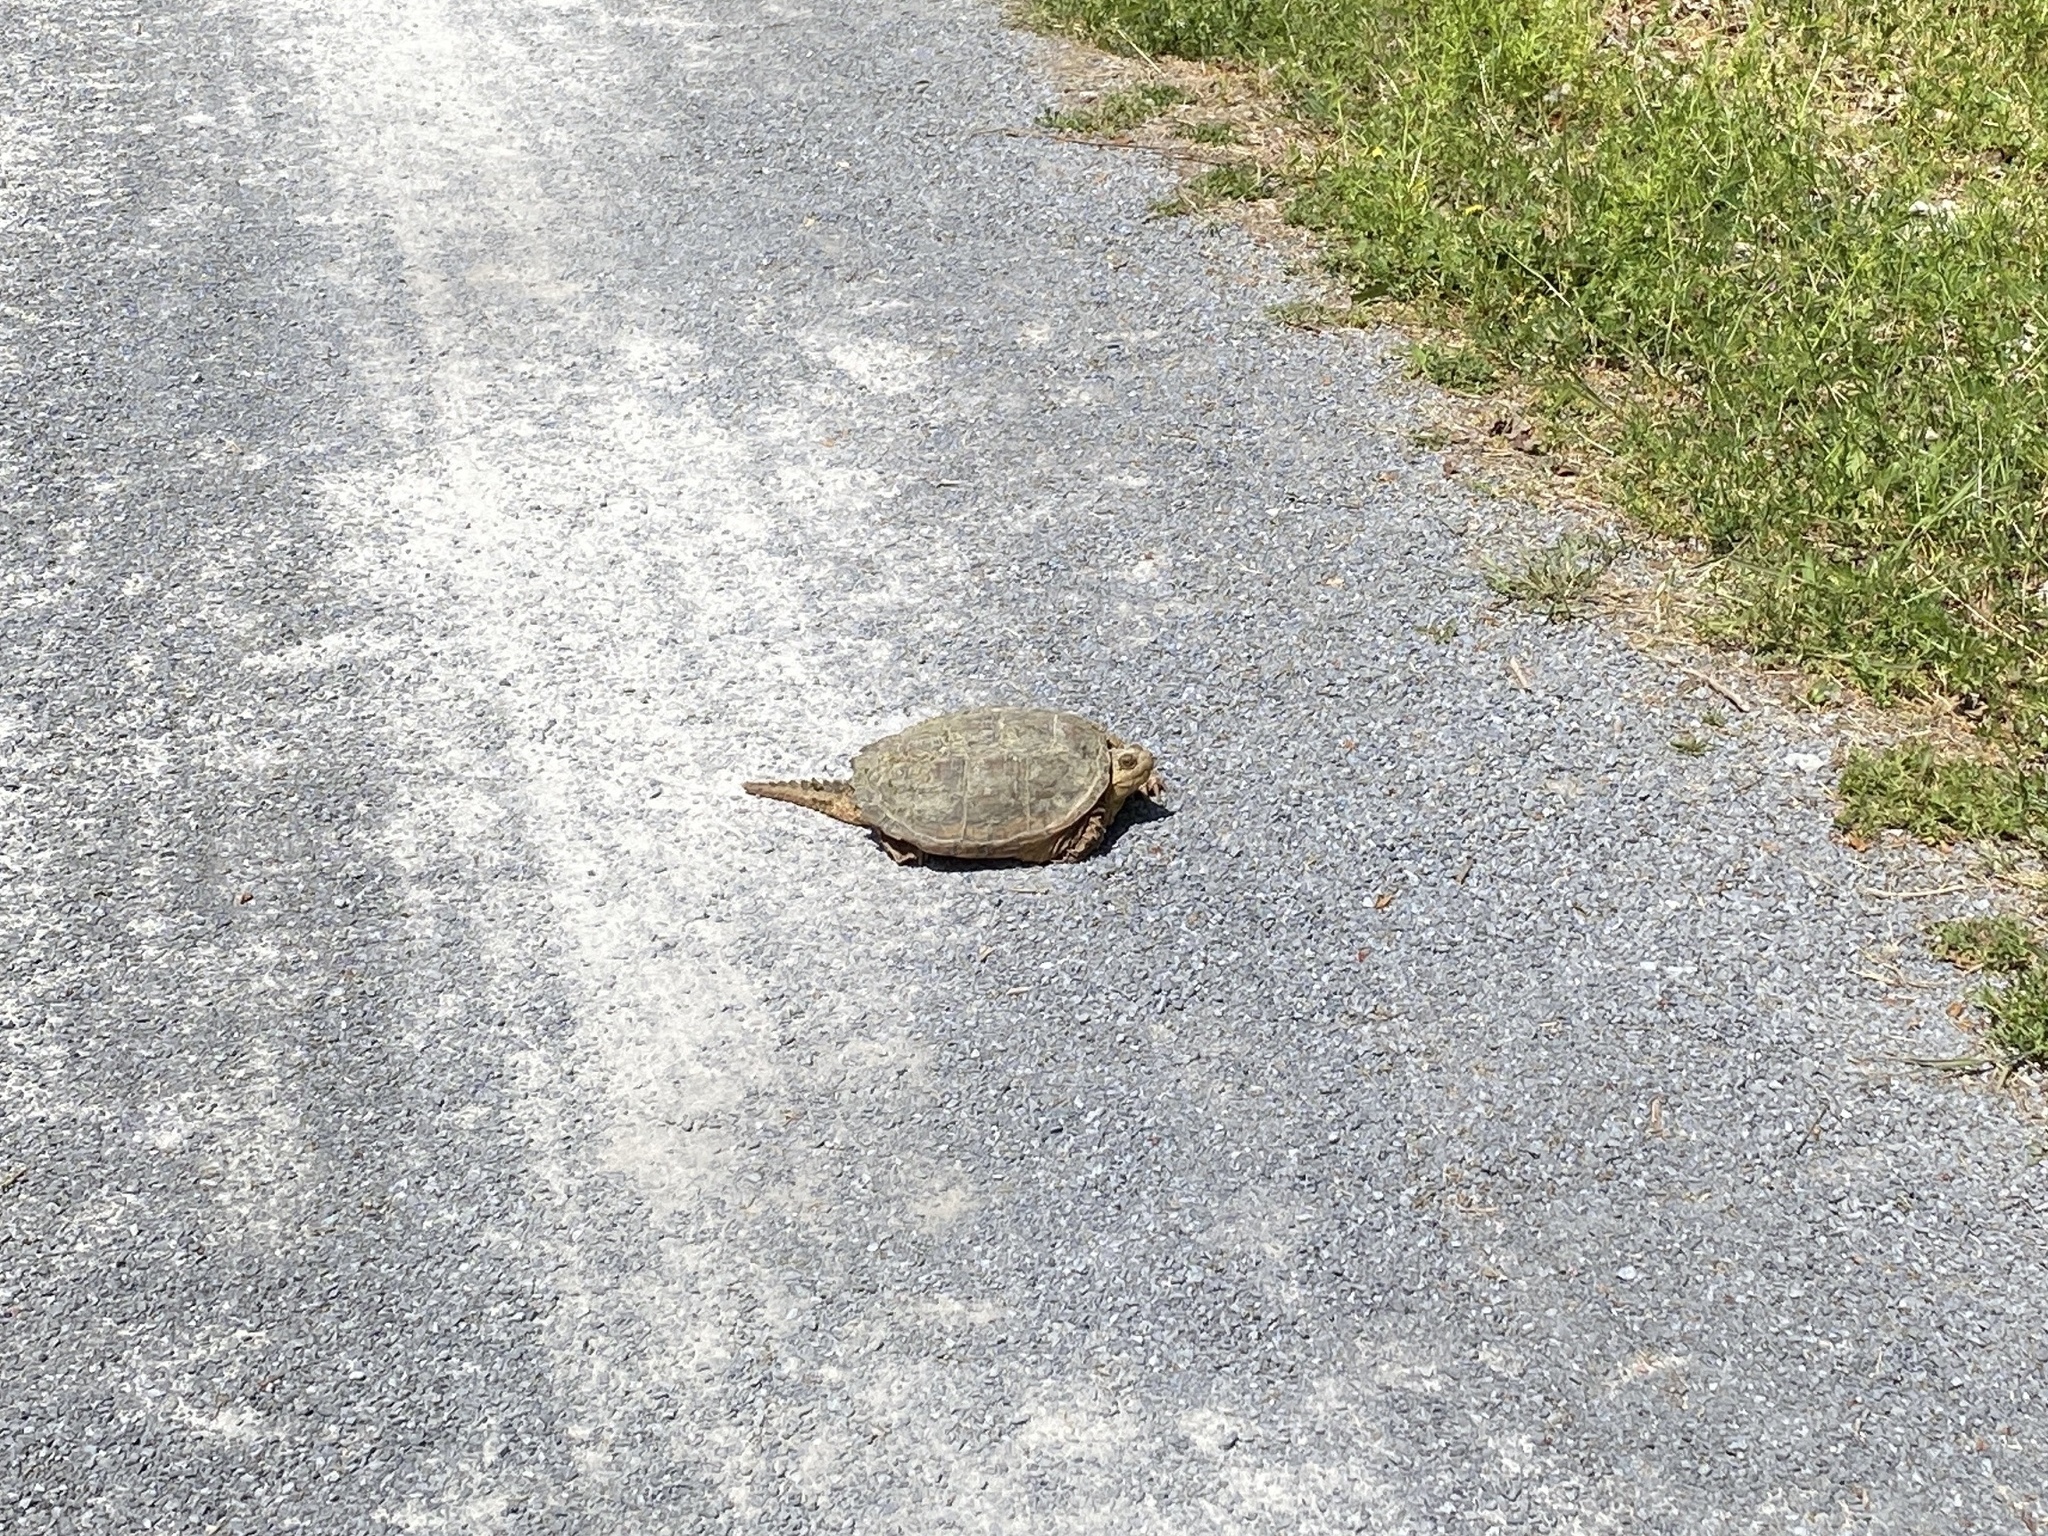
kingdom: Animalia
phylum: Chordata
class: Testudines
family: Chelydridae
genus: Chelydra
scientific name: Chelydra serpentina
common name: Common snapping turtle
